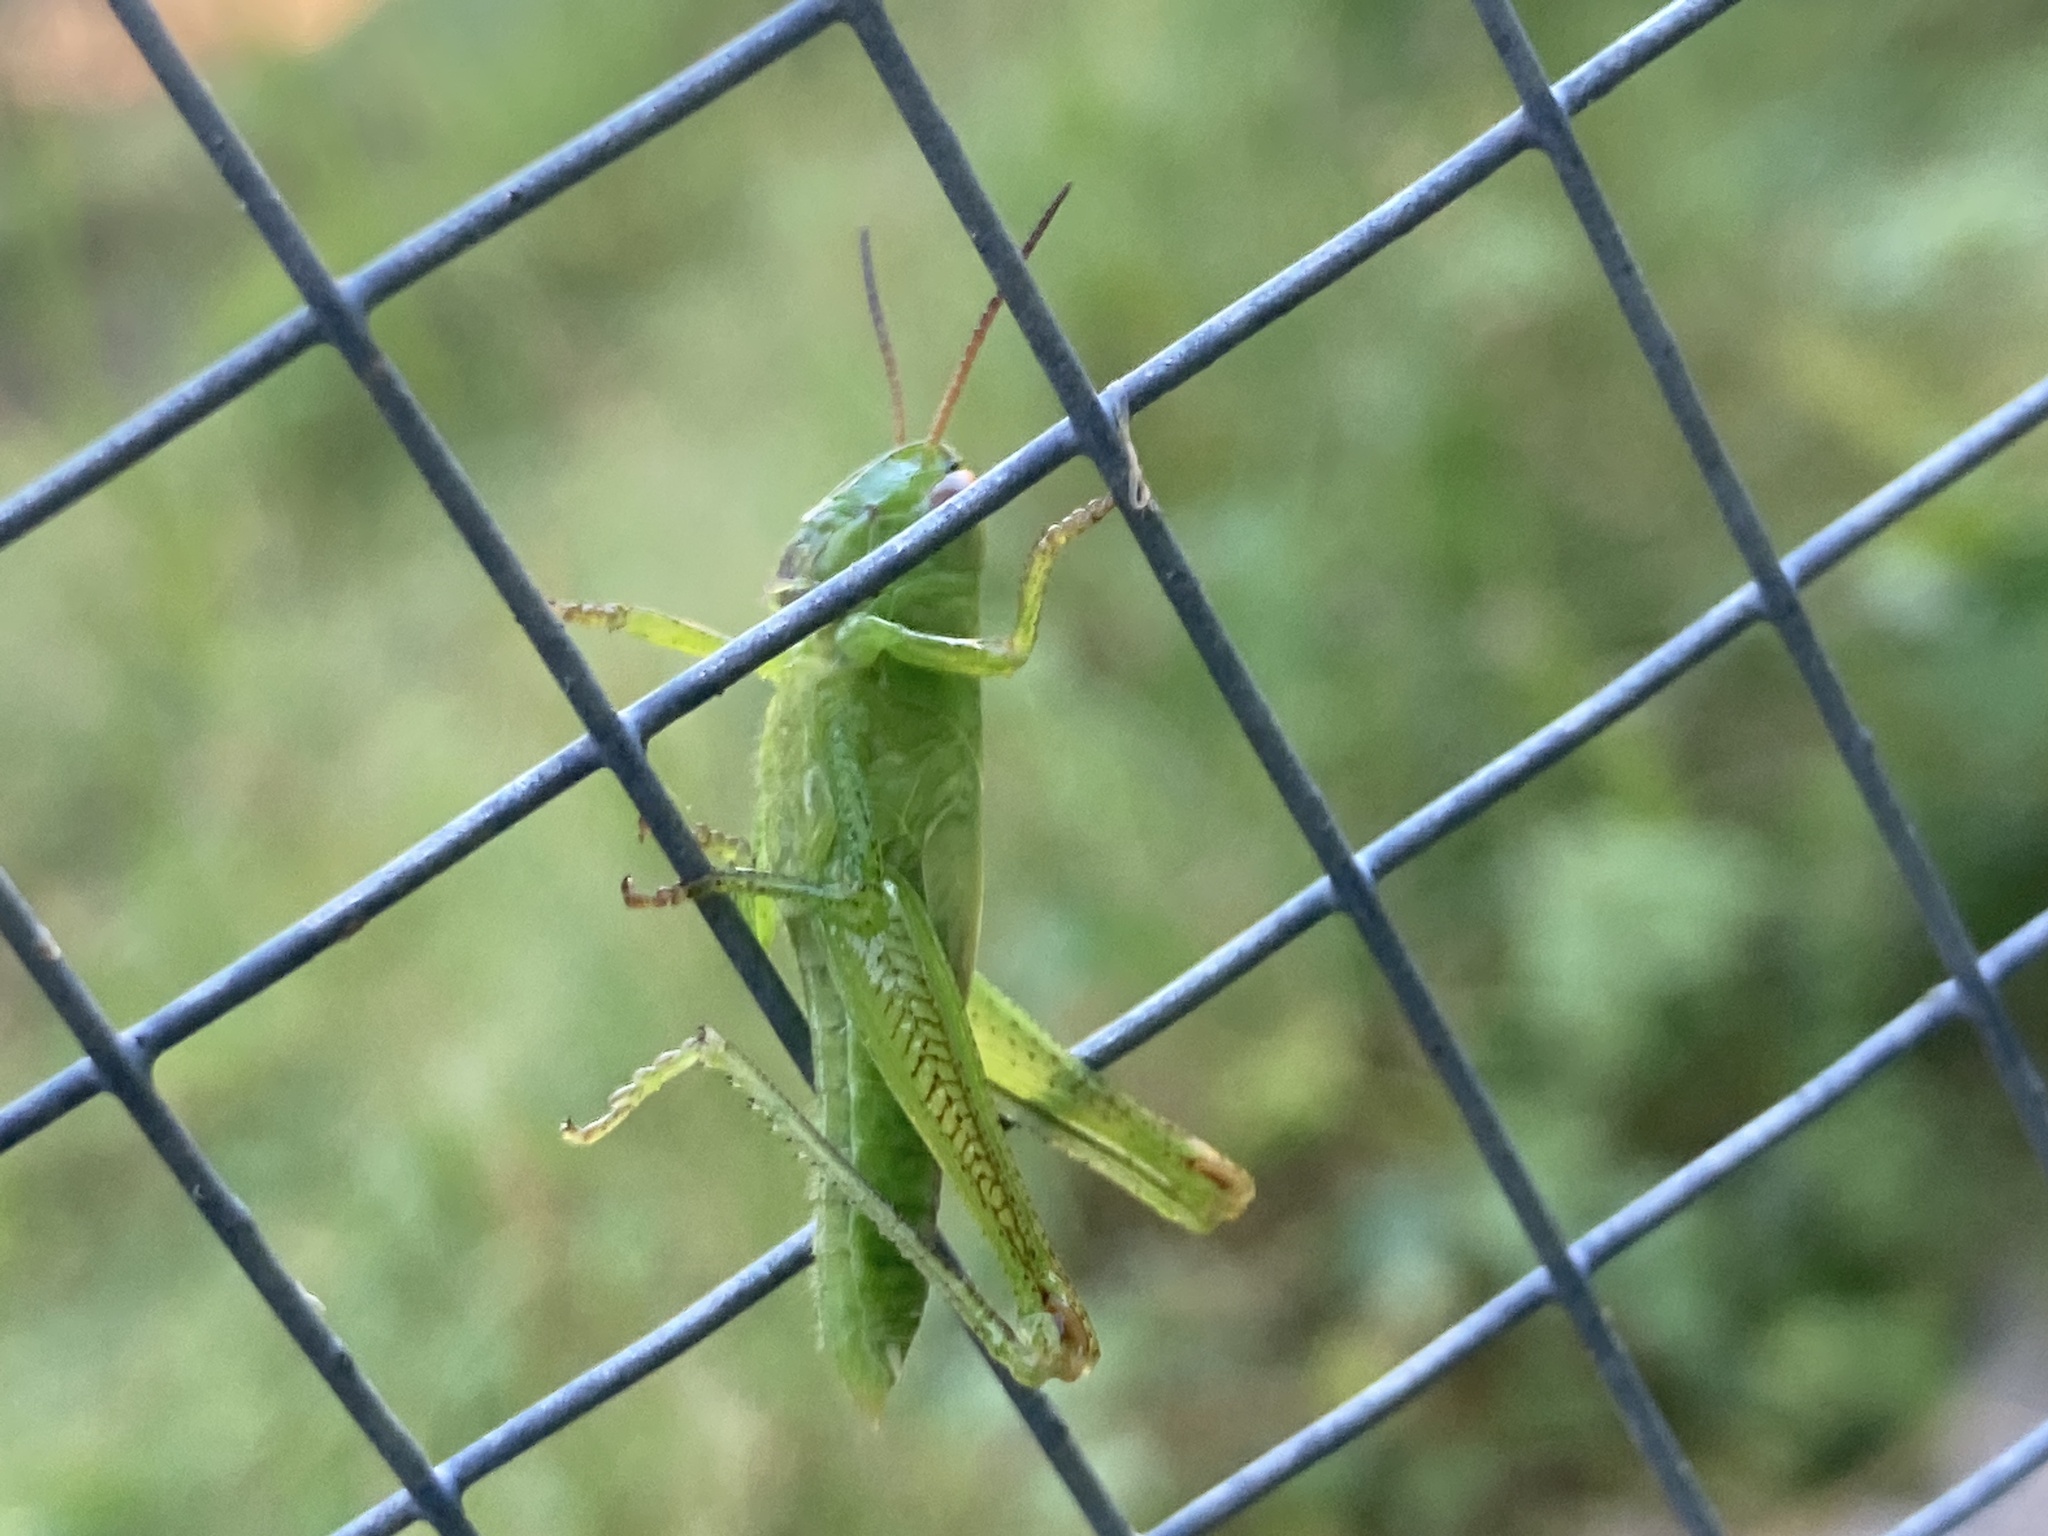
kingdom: Animalia
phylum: Arthropoda
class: Insecta
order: Orthoptera
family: Acrididae
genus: Mecostethus
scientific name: Mecostethus parapleurus
